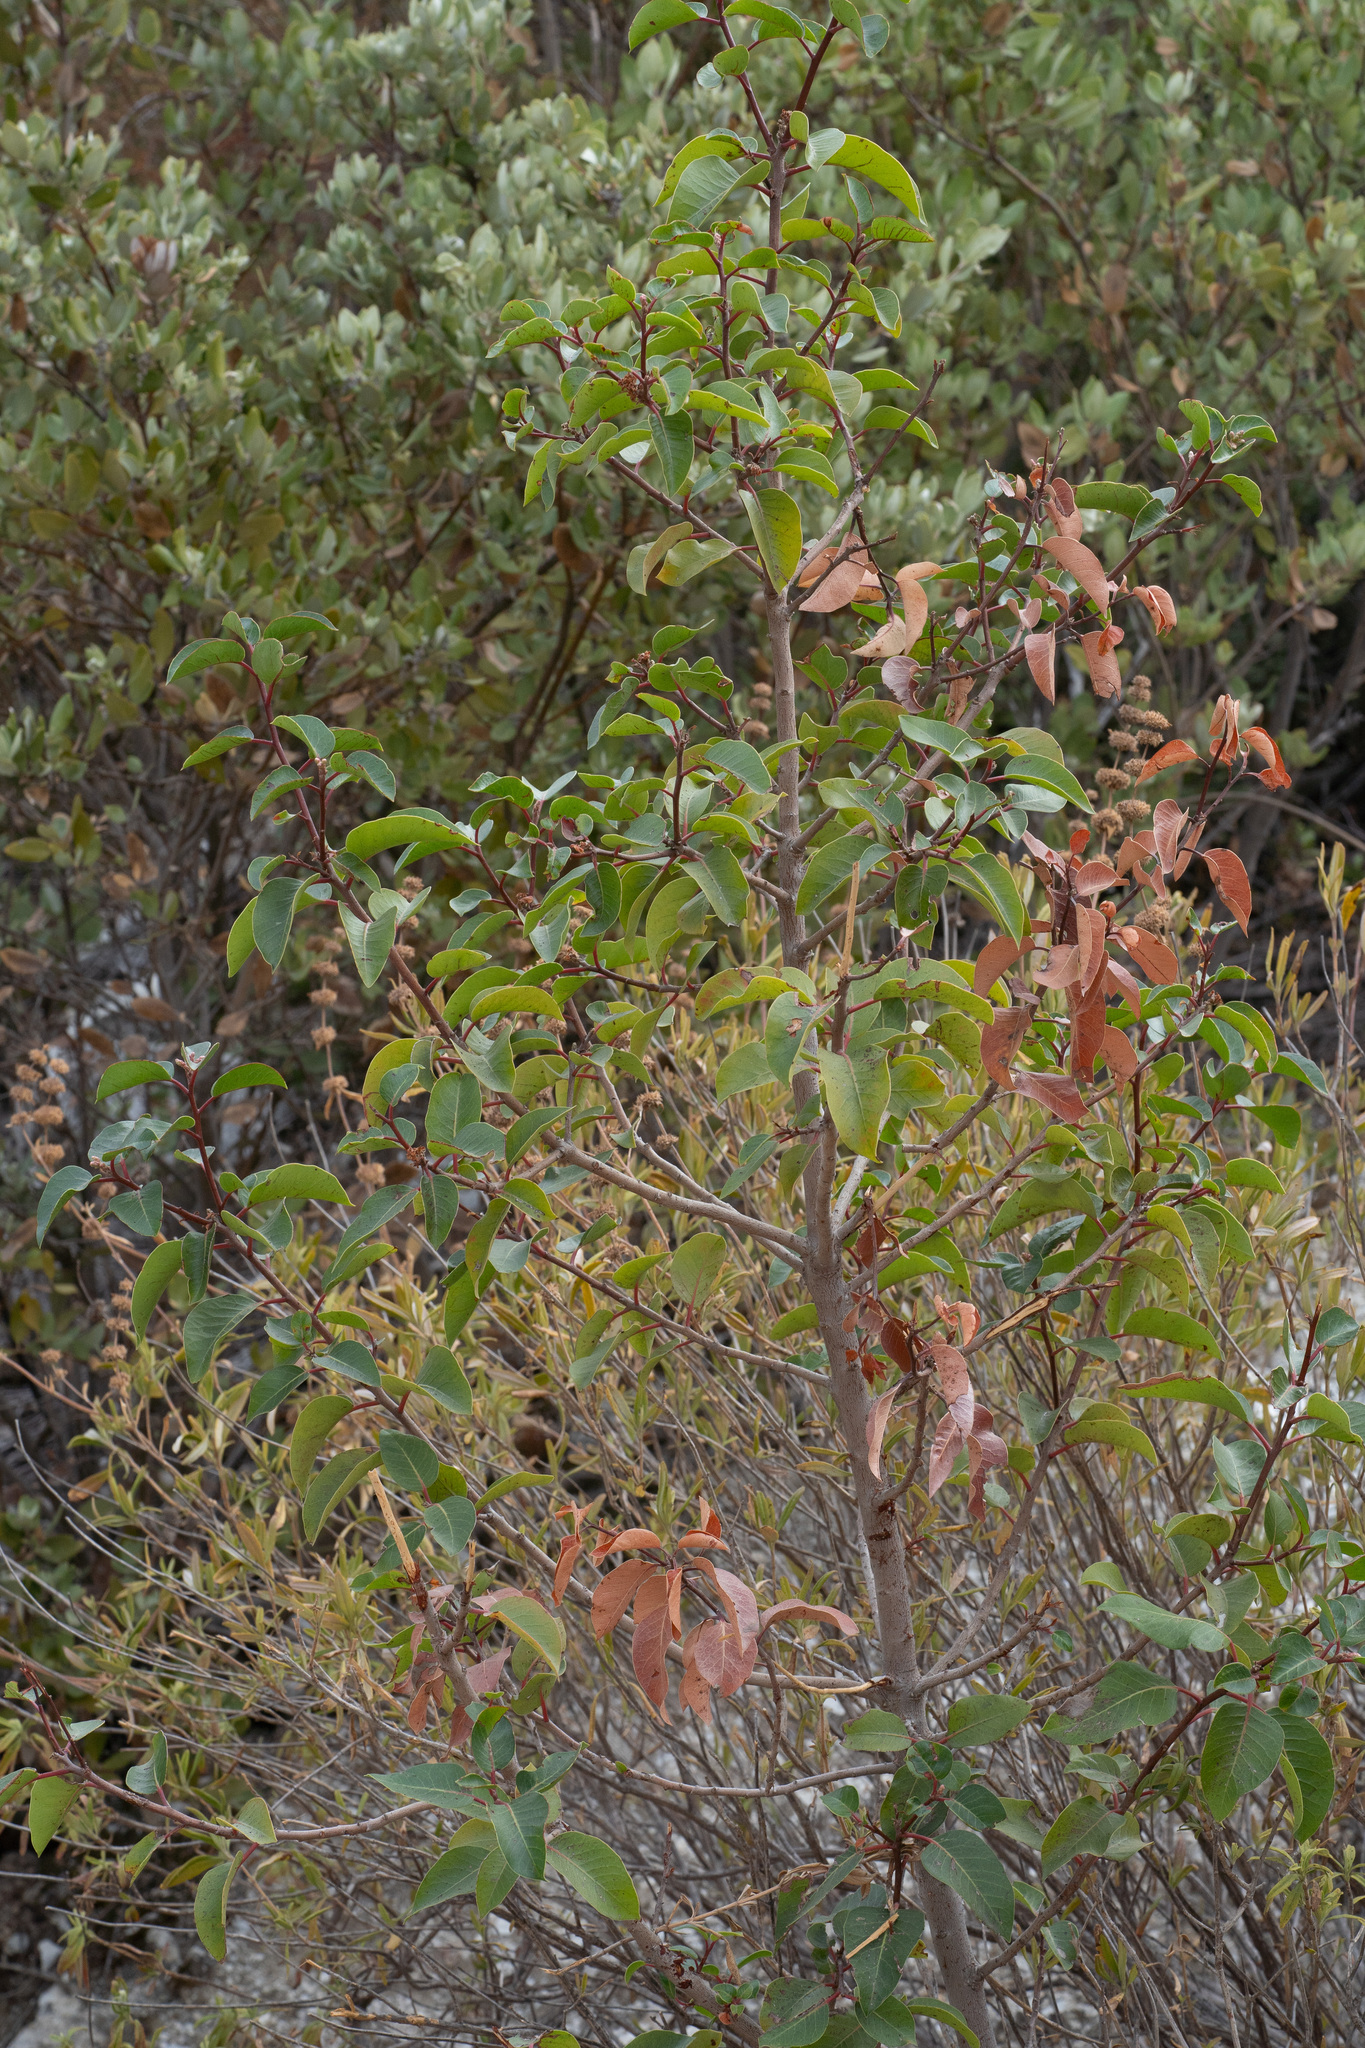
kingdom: Plantae
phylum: Tracheophyta
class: Magnoliopsida
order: Sapindales
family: Anacardiaceae
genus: Rhus
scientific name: Rhus ovata
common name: Sugar sumac
